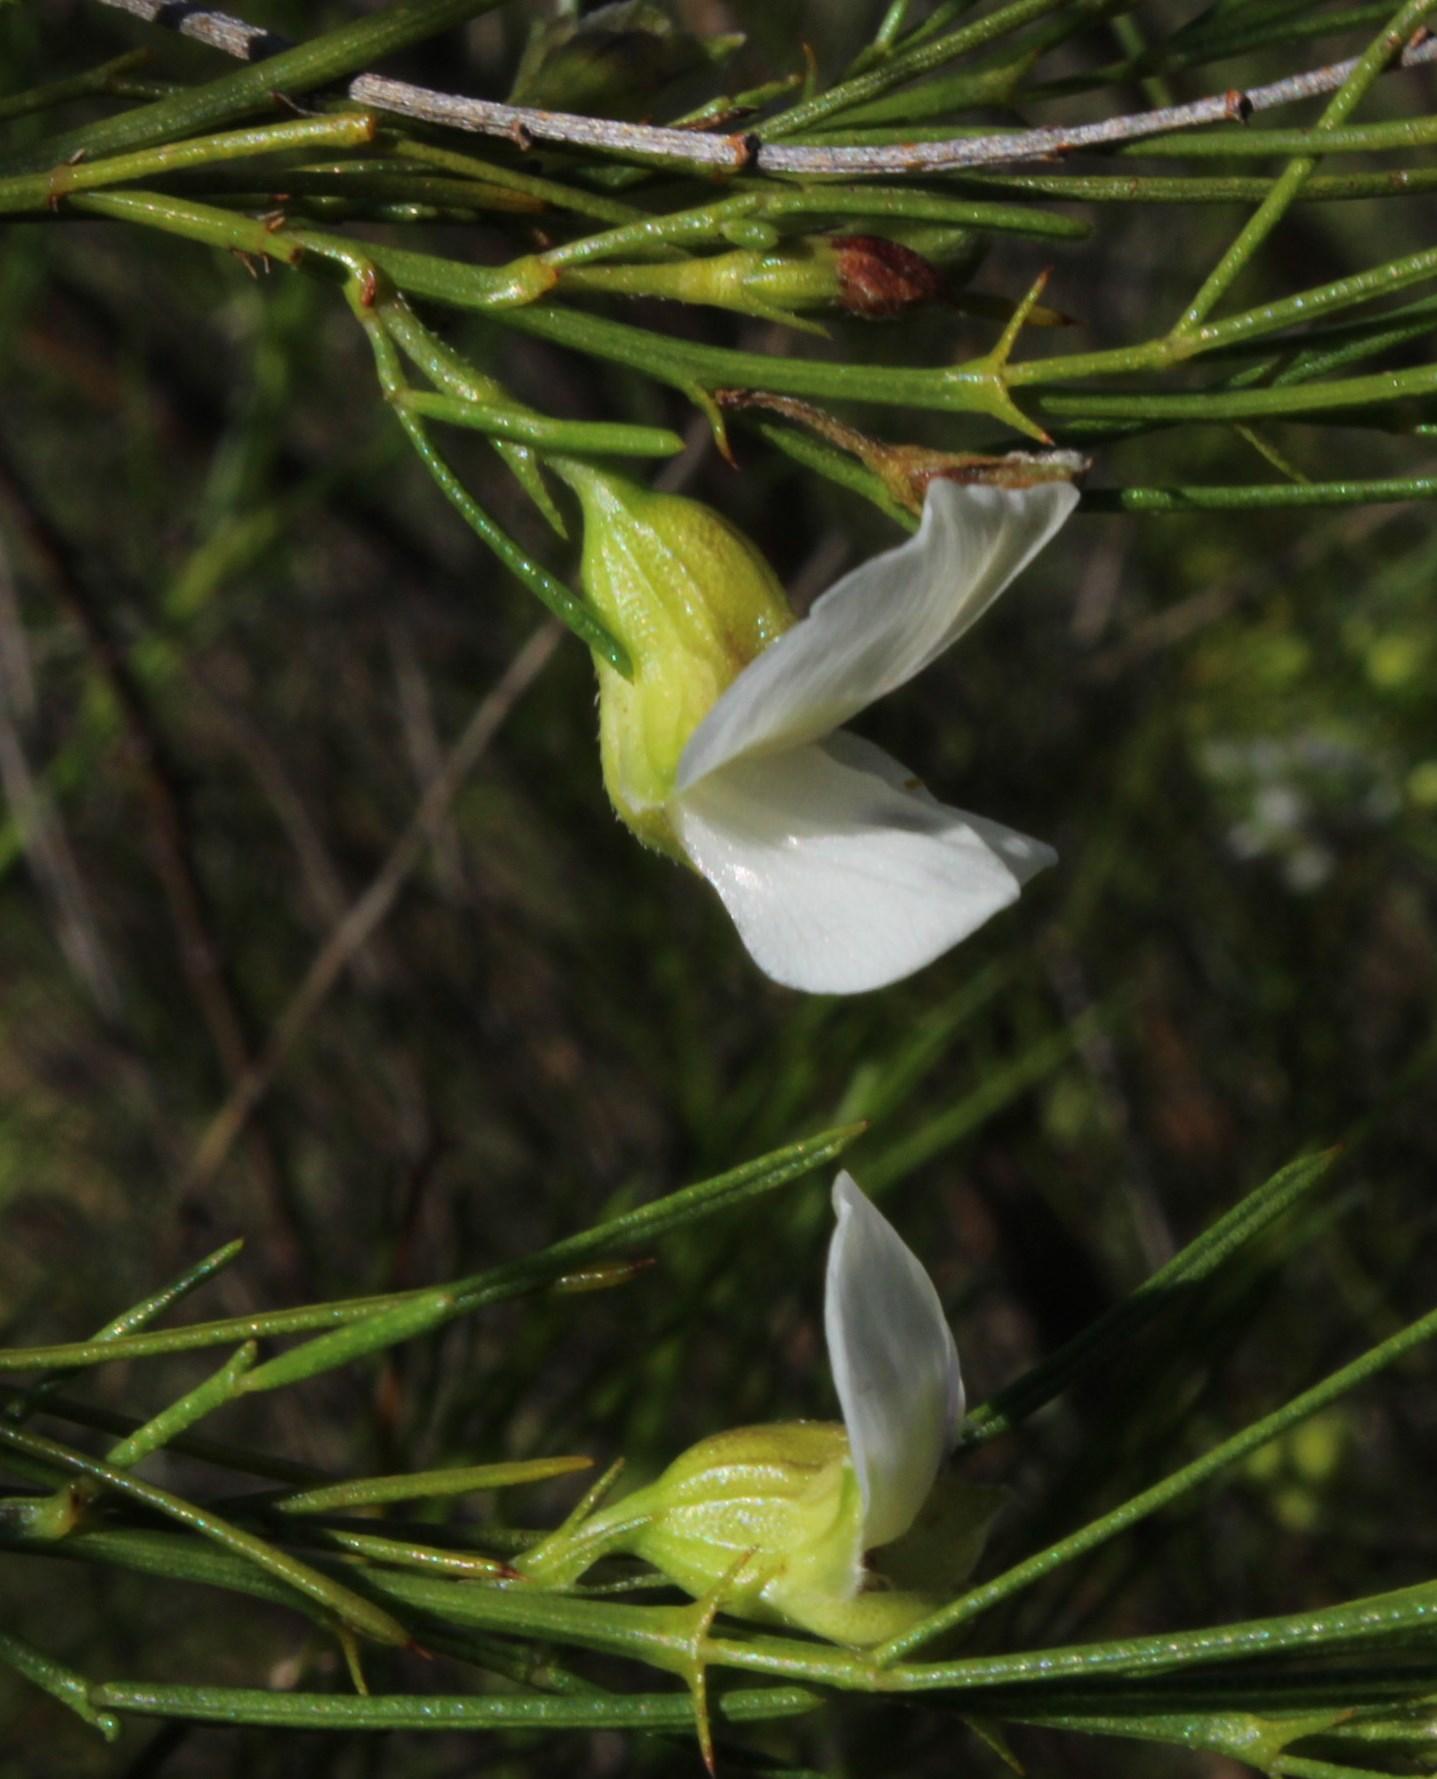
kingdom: Plantae
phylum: Tracheophyta
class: Magnoliopsida
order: Fabales
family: Fabaceae
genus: Psoralea
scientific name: Psoralea
